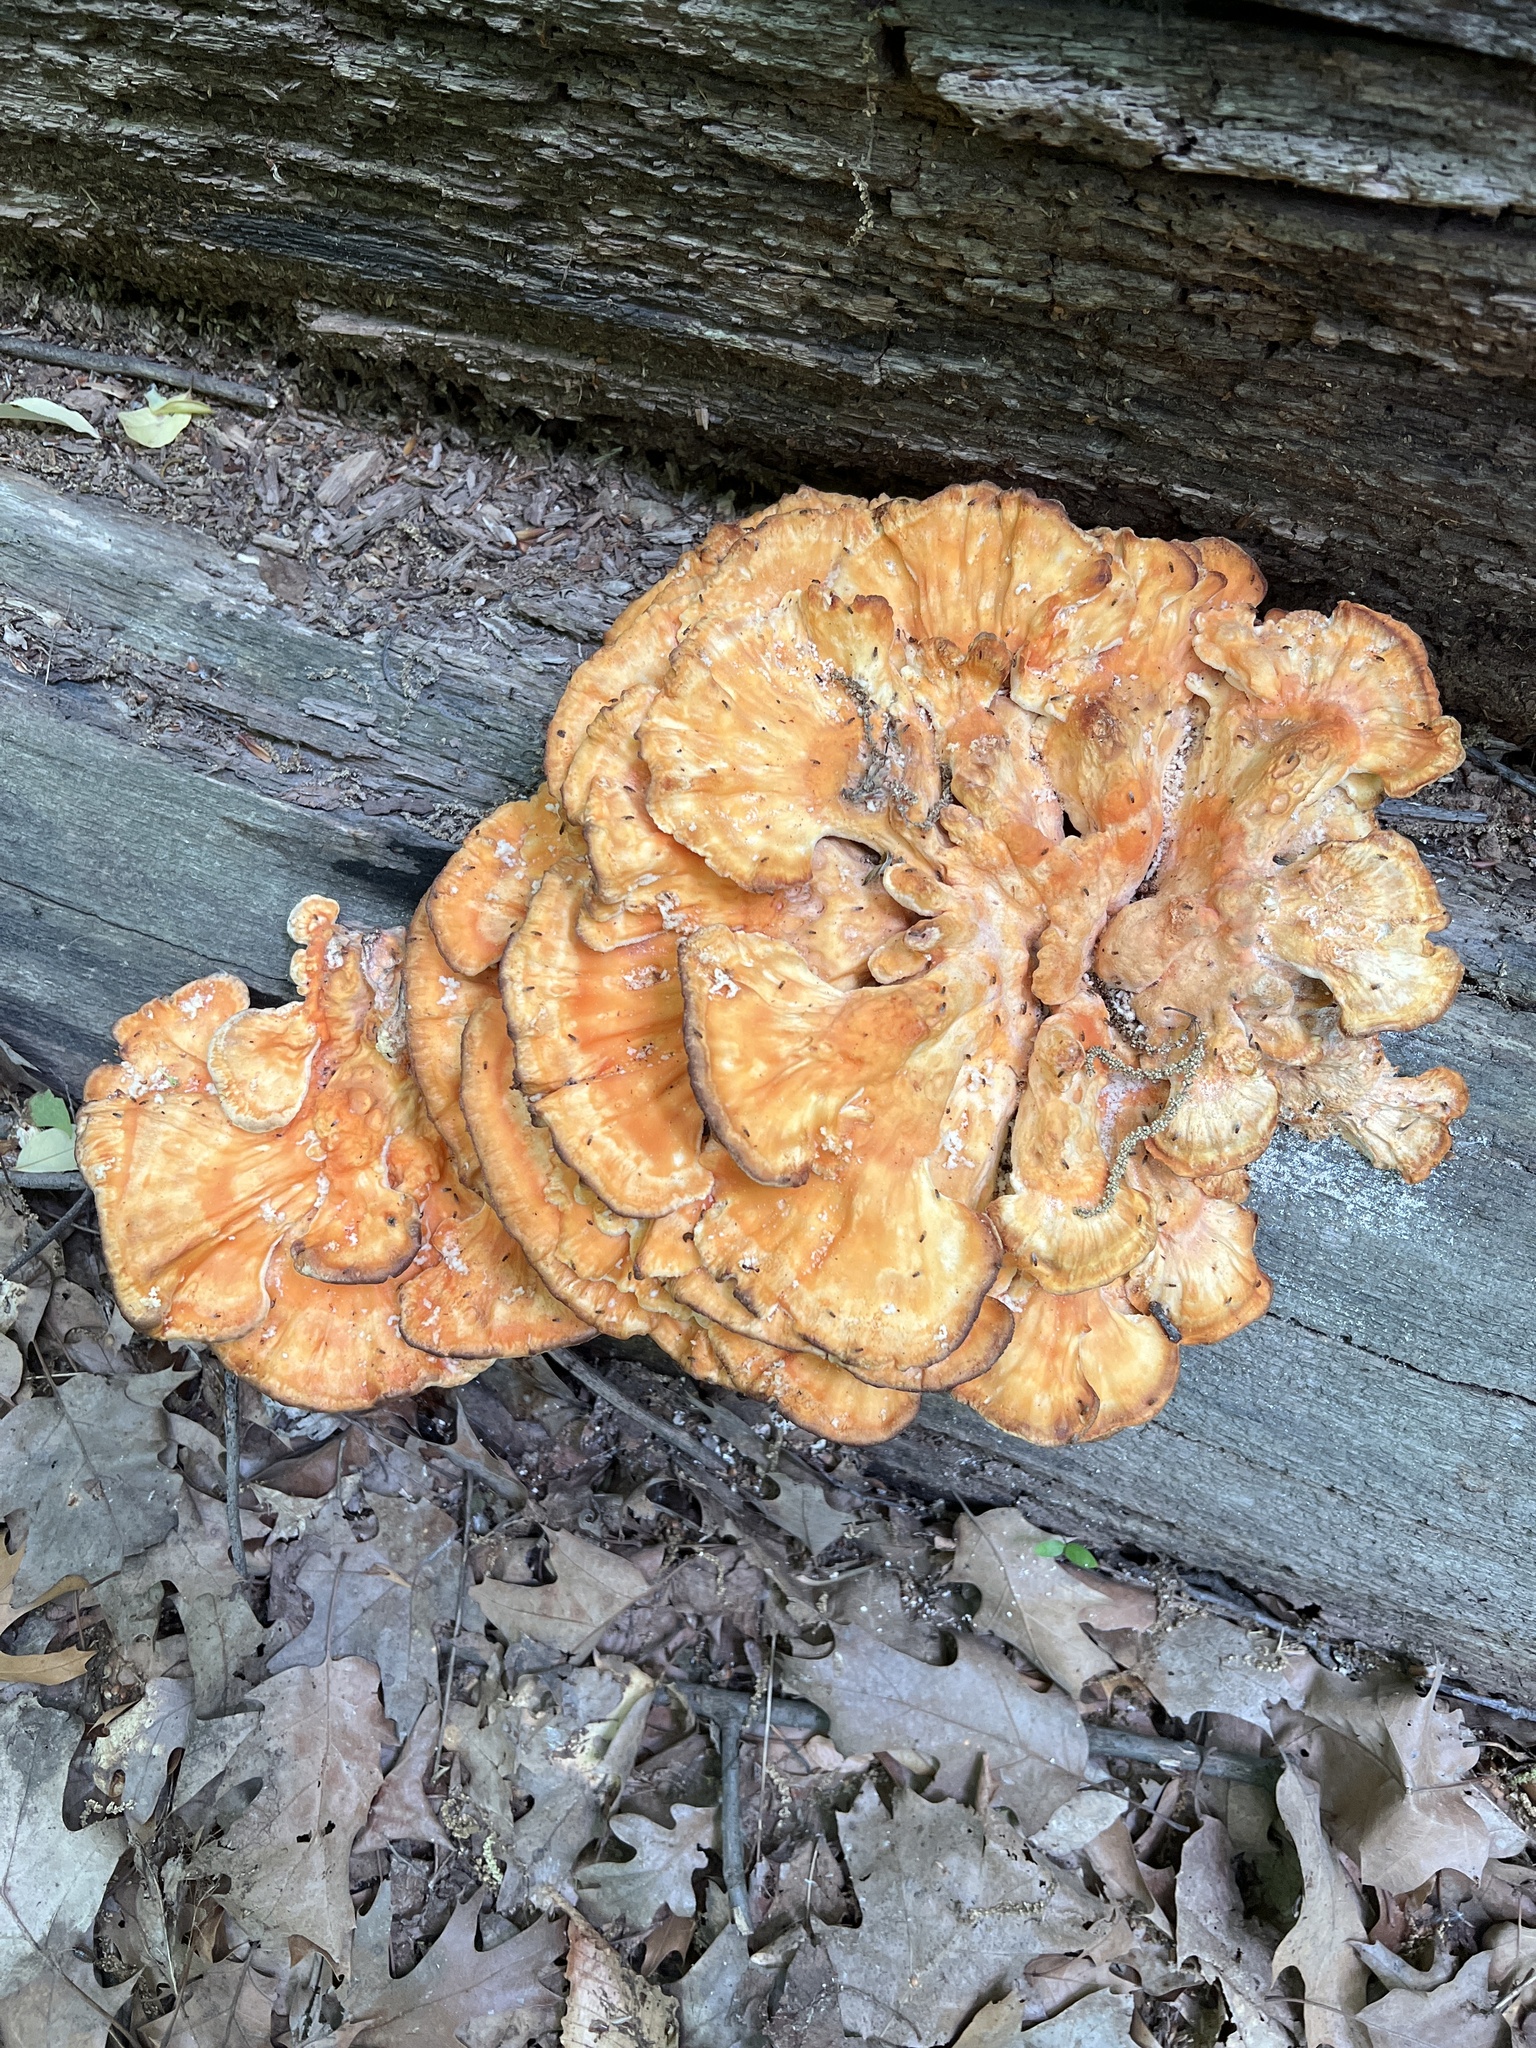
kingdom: Fungi
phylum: Basidiomycota
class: Agaricomycetes
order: Polyporales
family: Laetiporaceae
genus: Laetiporus
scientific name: Laetiporus sulphureus
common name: Chicken of the woods
